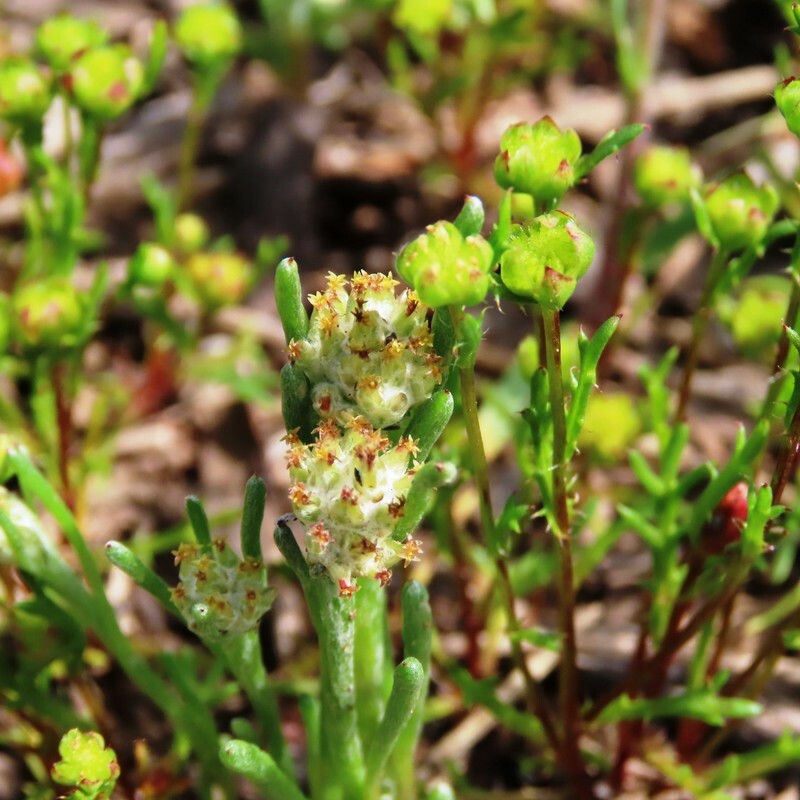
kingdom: Plantae
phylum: Tracheophyta
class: Magnoliopsida
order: Asterales
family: Asteraceae
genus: Blennospora
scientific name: Blennospora drummondii
